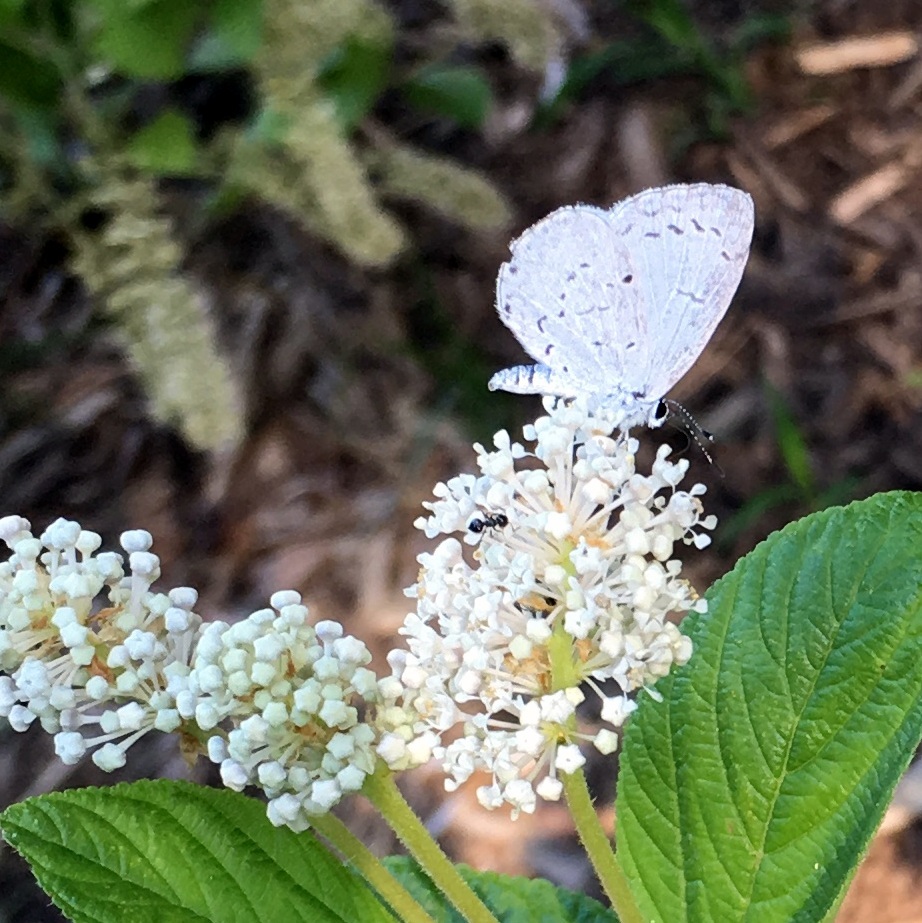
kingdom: Animalia
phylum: Arthropoda
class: Insecta
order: Lepidoptera
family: Lycaenidae
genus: Cyaniris
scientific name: Cyaniris neglecta
